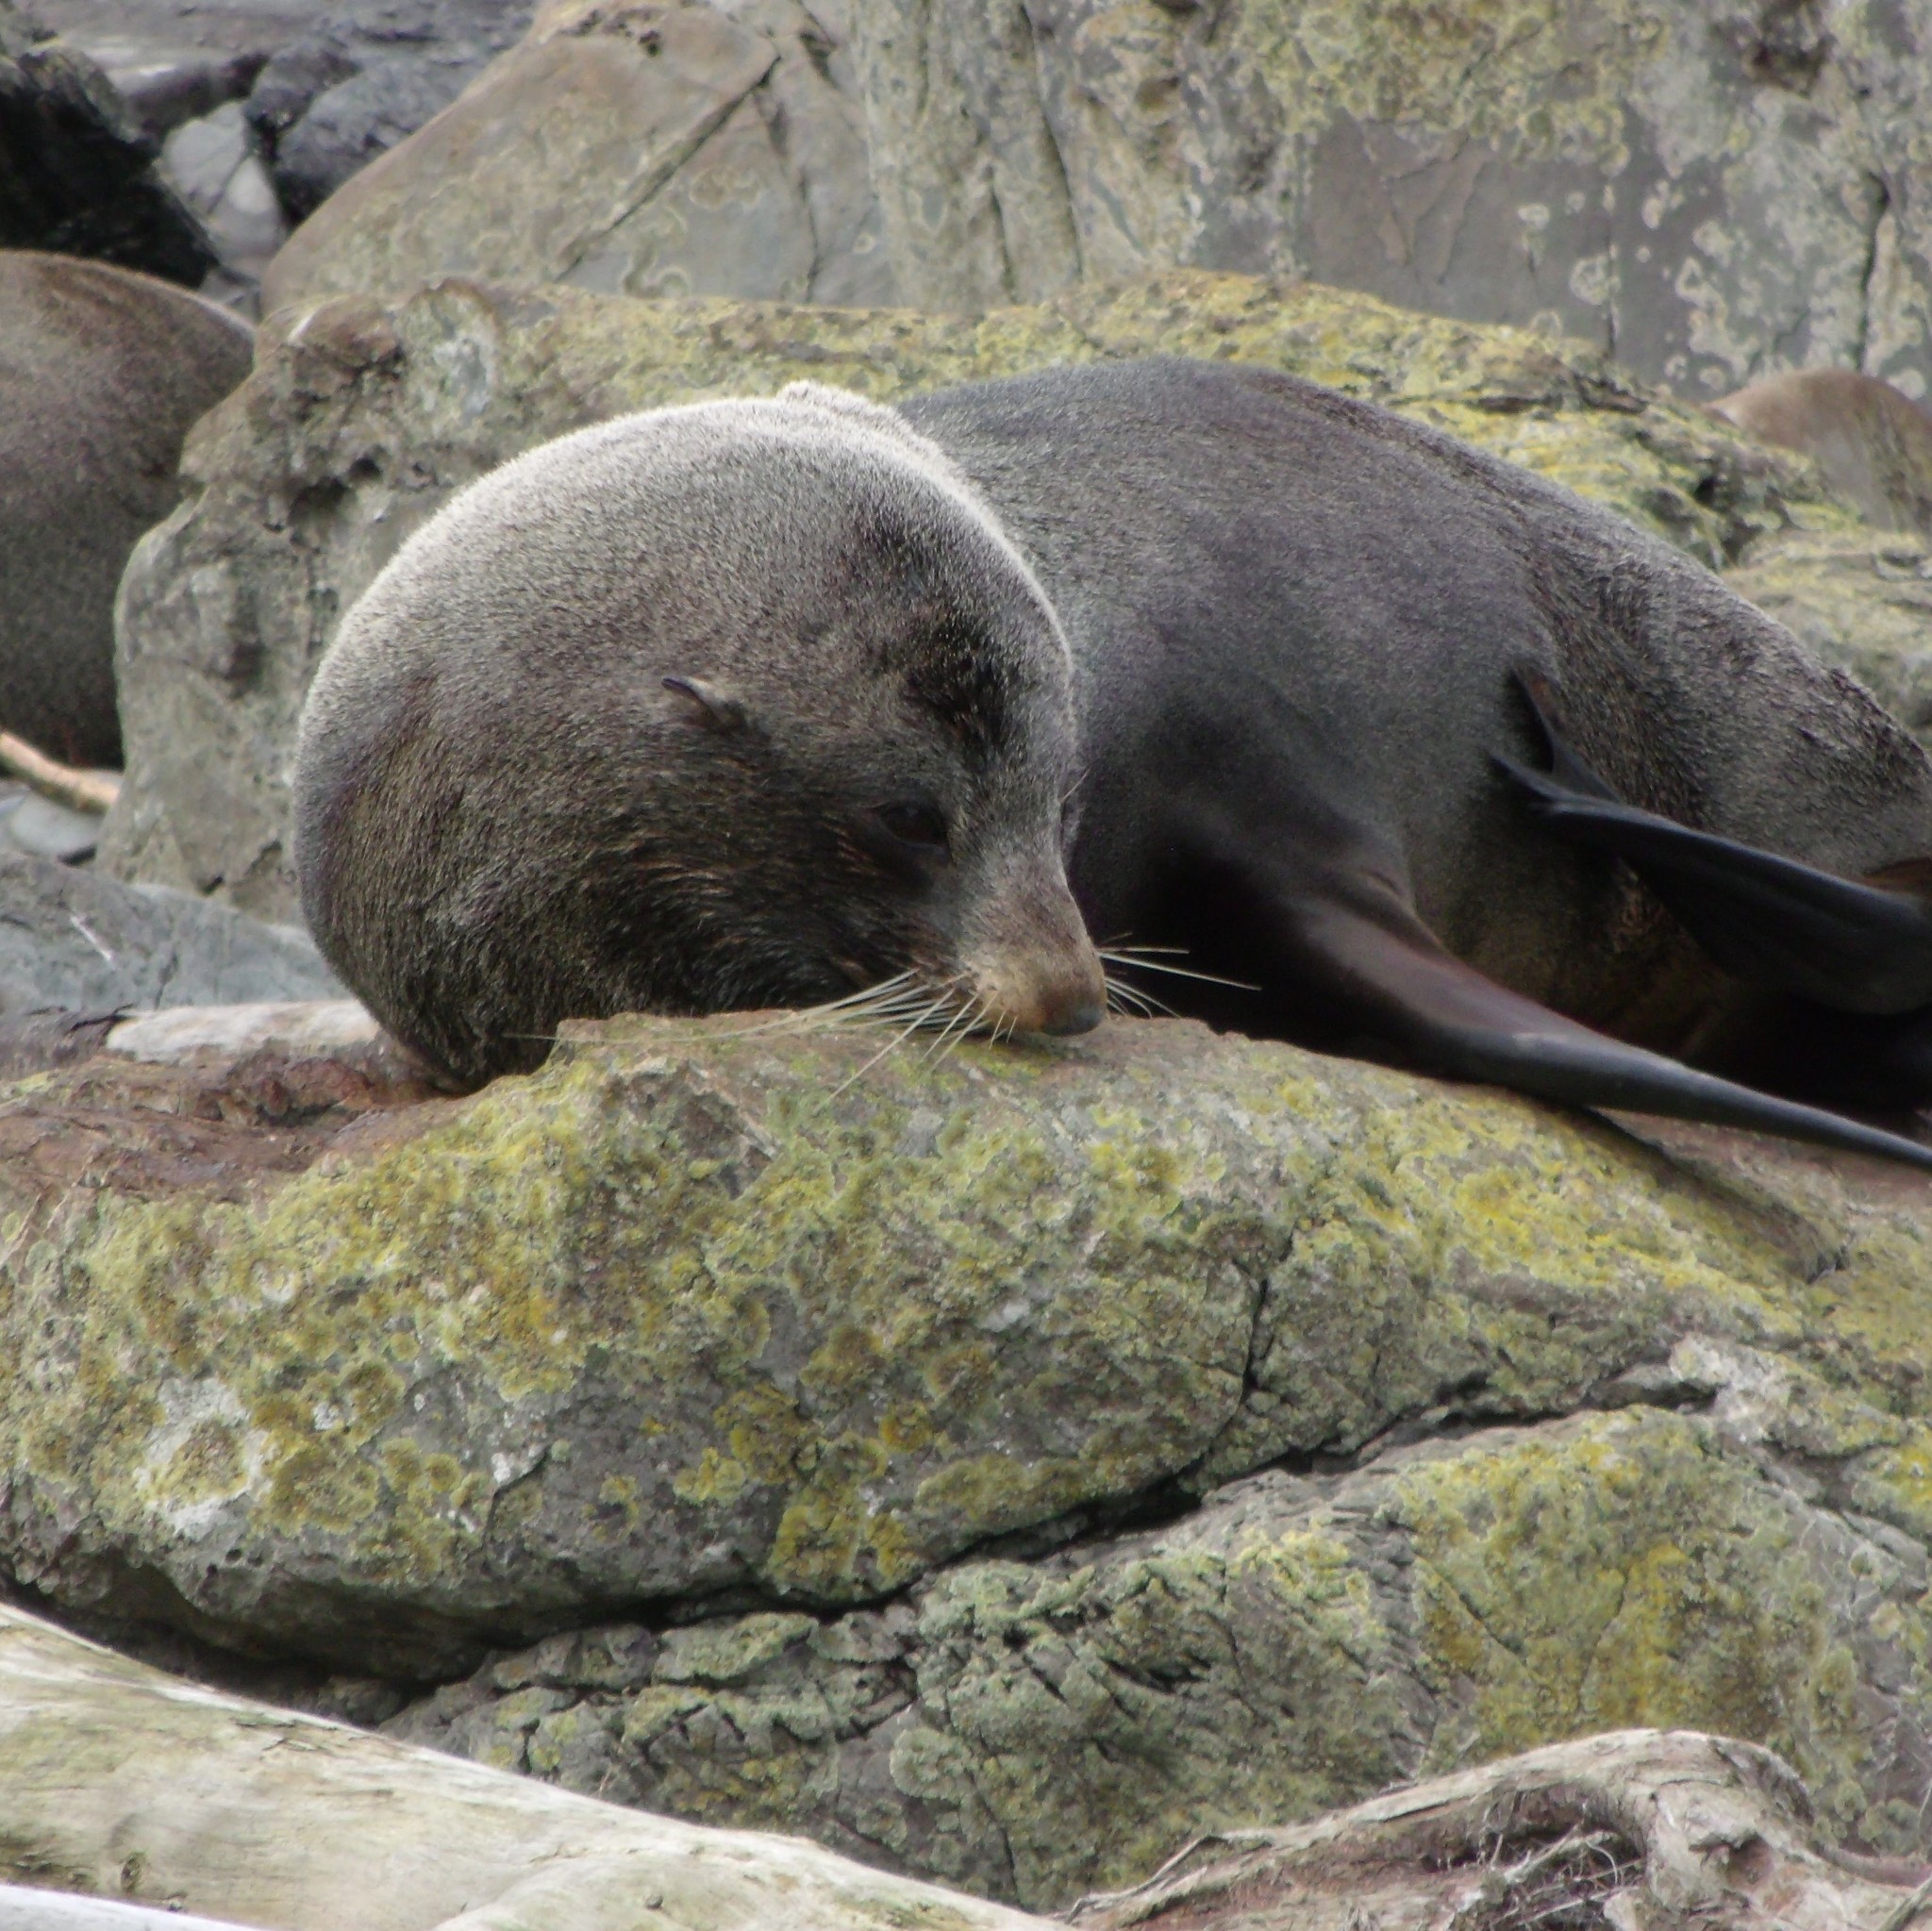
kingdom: Animalia
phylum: Chordata
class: Mammalia
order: Carnivora
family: Otariidae
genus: Arctocephalus
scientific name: Arctocephalus forsteri
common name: New zealand fur seal
